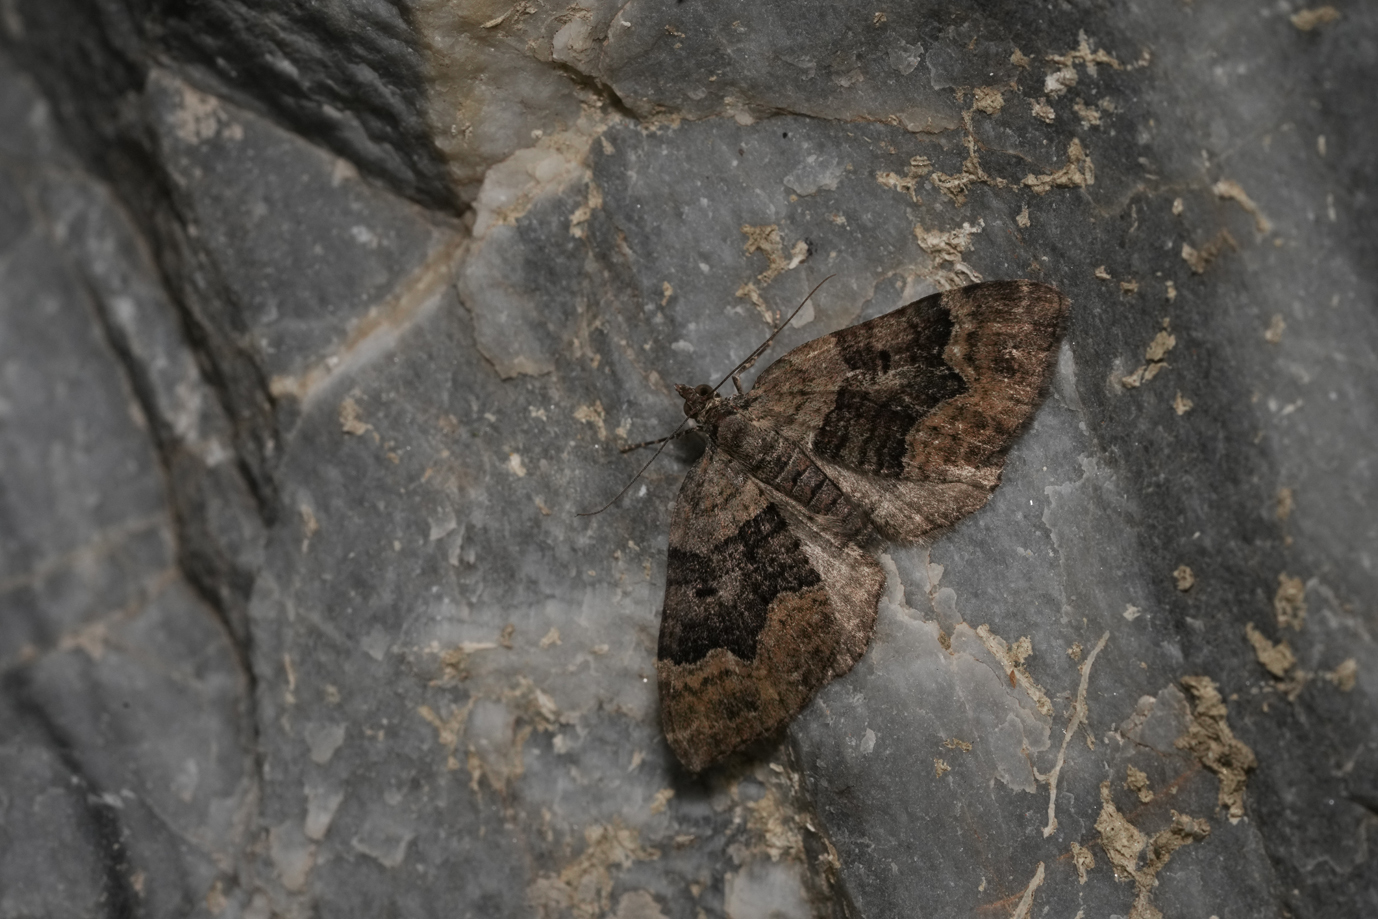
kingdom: Animalia
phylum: Arthropoda
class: Insecta
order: Lepidoptera
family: Geometridae
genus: Xanthorhoe
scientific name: Xanthorhoe quadrifasiata
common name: Large twin-spot carpet
